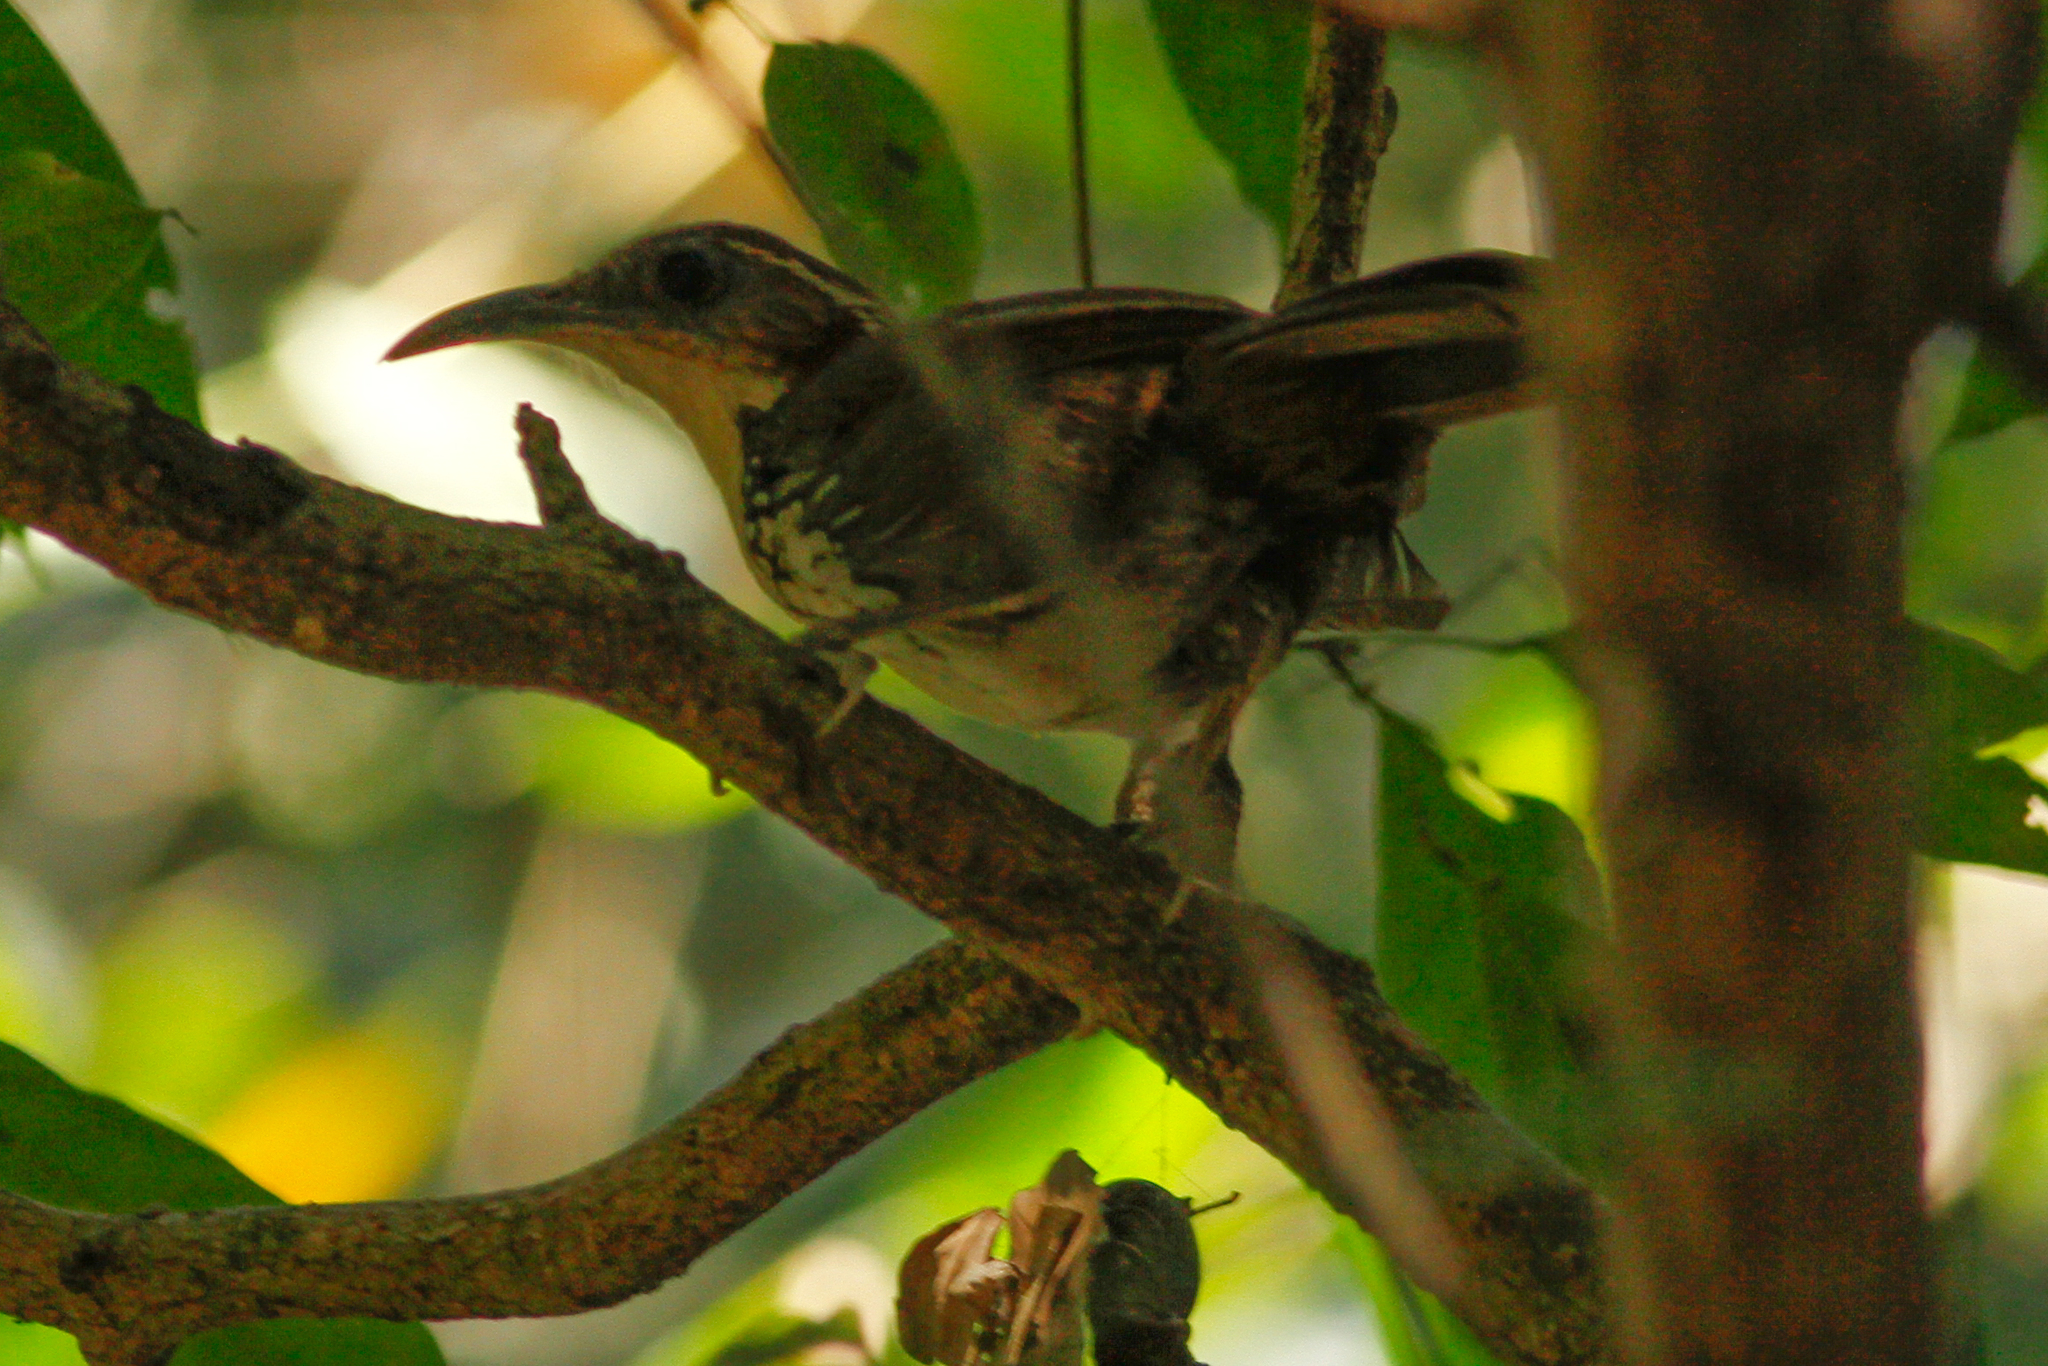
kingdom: Animalia
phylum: Chordata
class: Aves
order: Passeriformes
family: Timaliidae
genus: Pomatorhinus
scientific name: Pomatorhinus hypoleucos
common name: Large scimitar babbler
